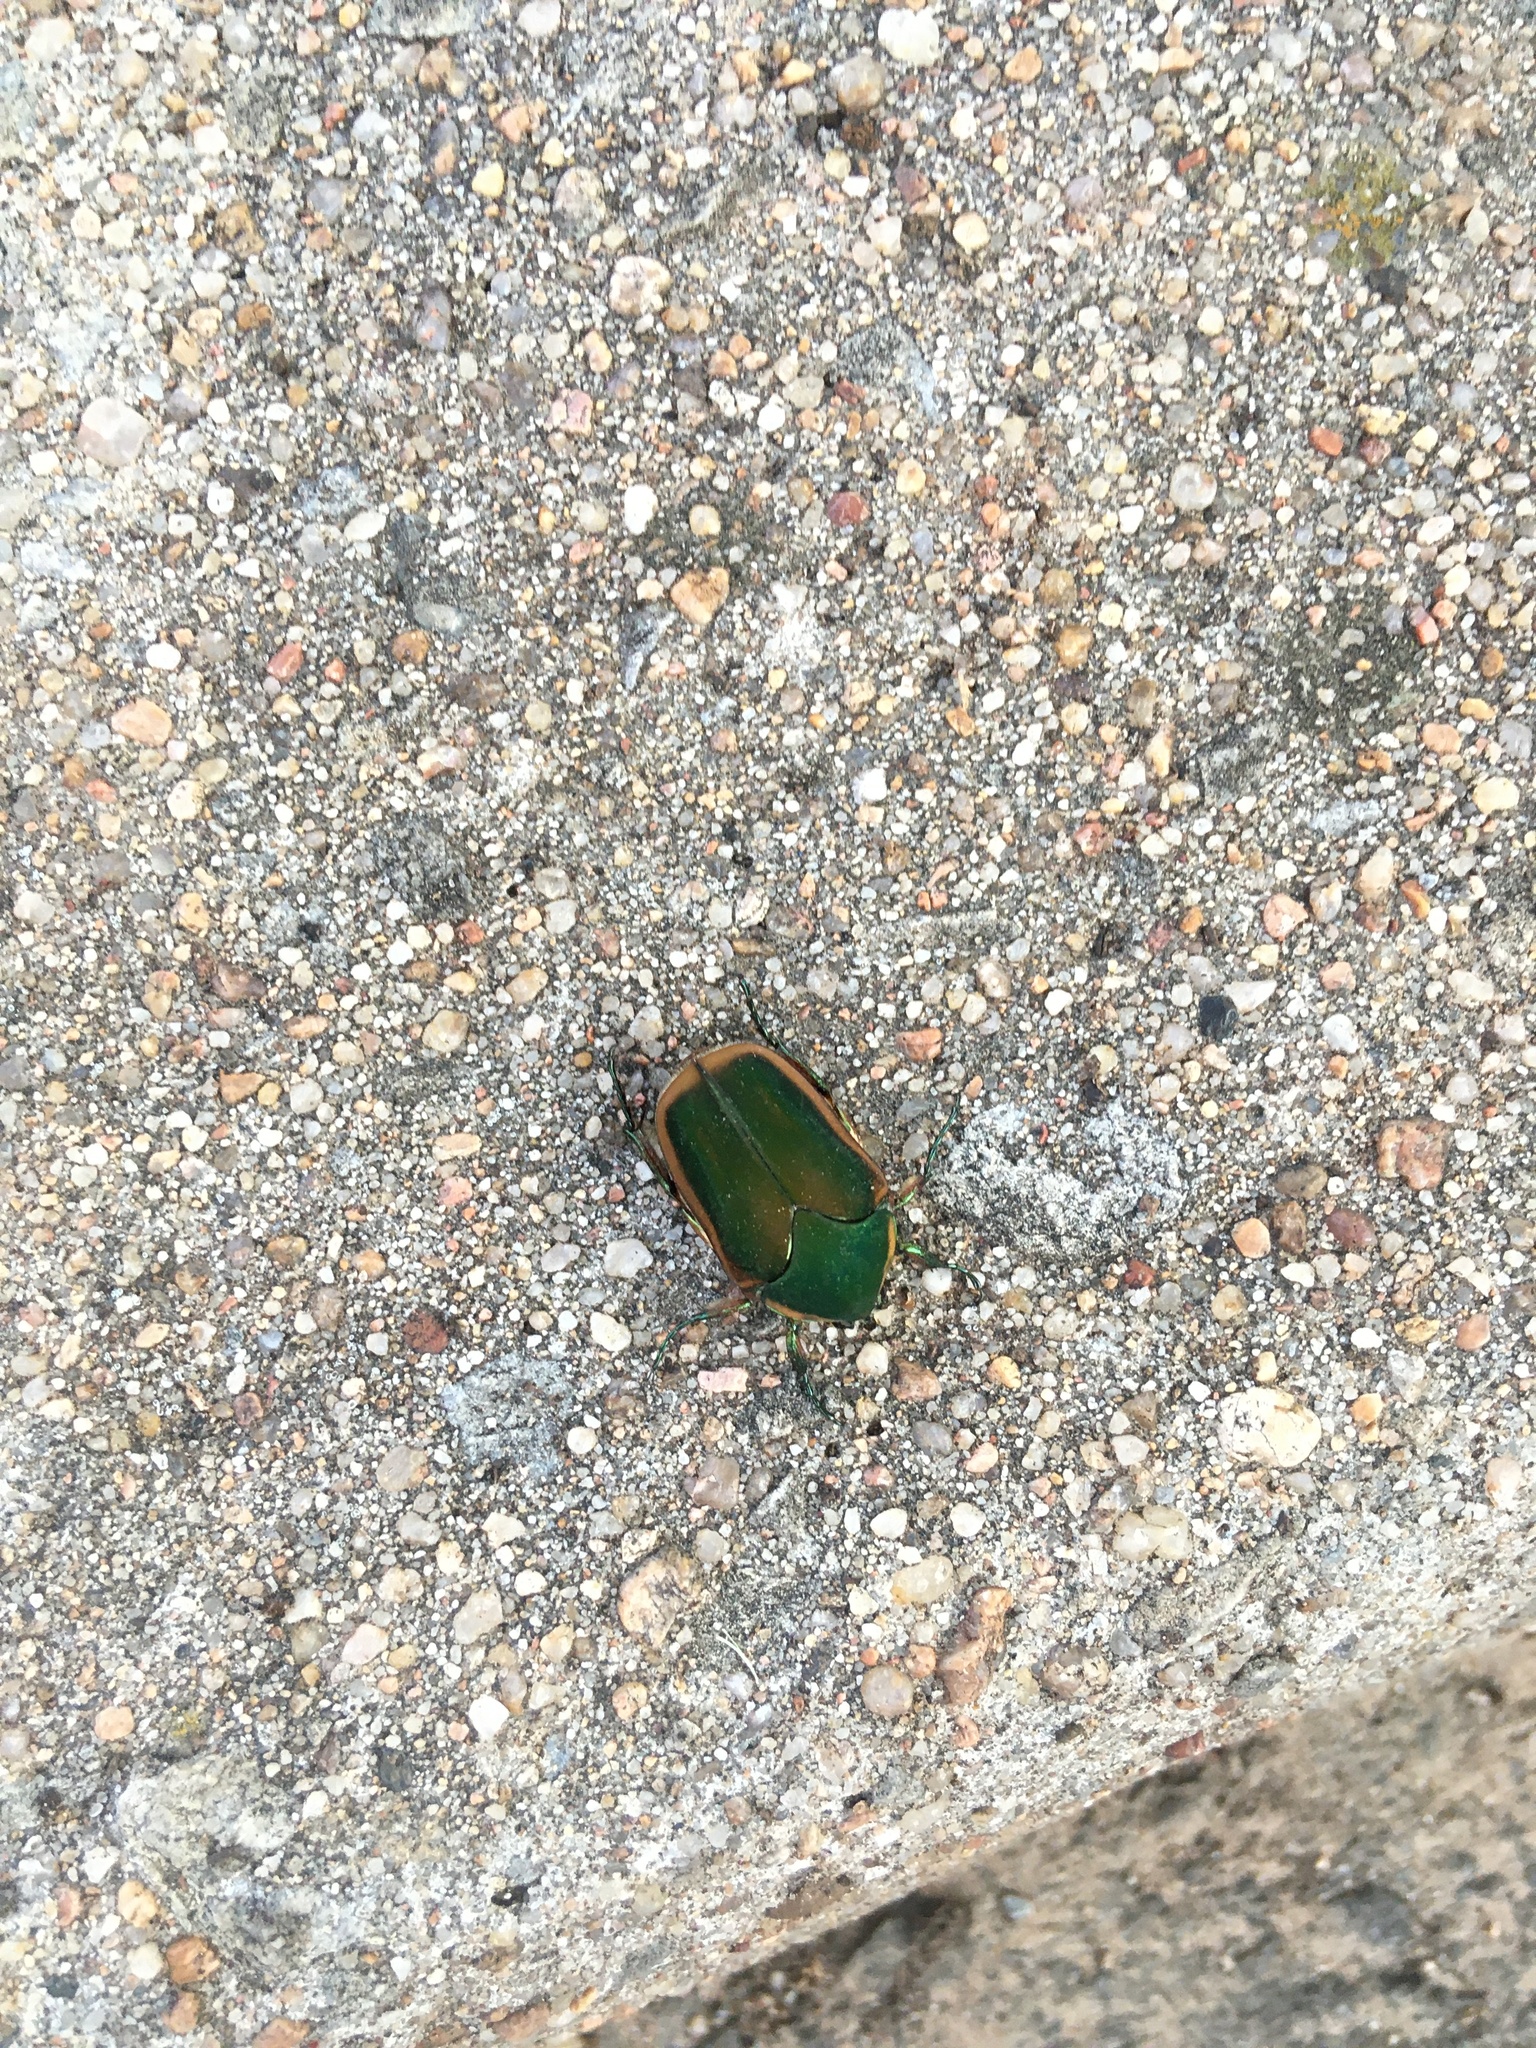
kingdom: Animalia
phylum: Arthropoda
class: Insecta
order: Coleoptera
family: Scarabaeidae
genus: Cotinis
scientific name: Cotinis nitida
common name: Common green june beetle
